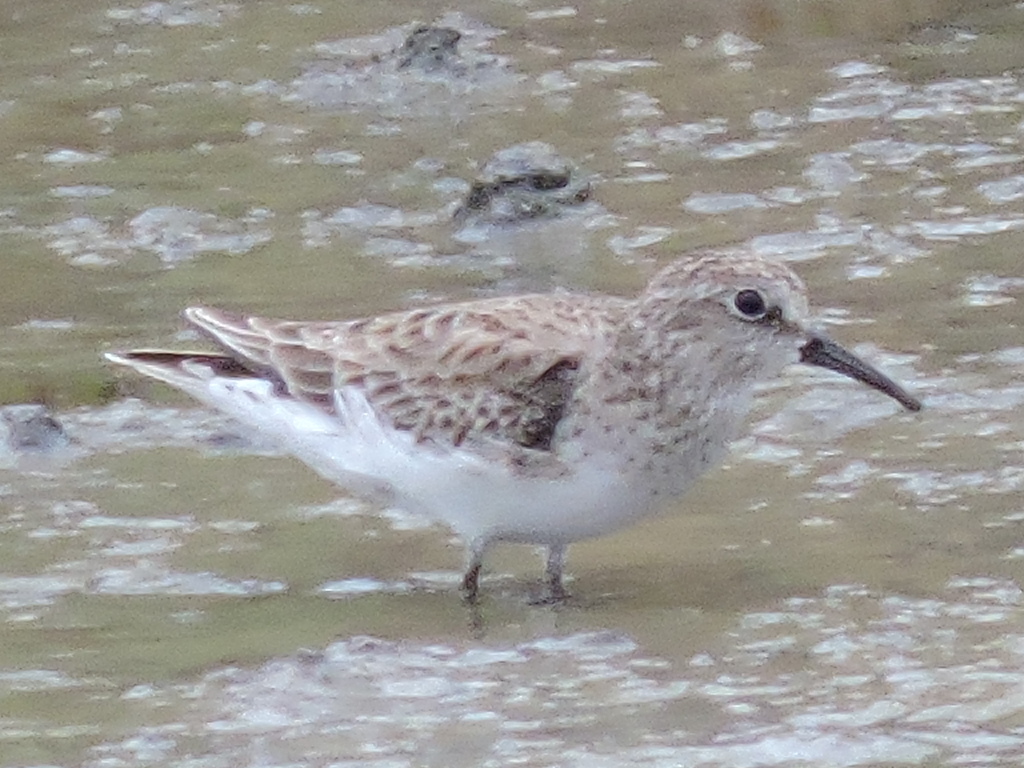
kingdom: Animalia
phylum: Chordata
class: Aves
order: Charadriiformes
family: Scolopacidae
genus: Calidris
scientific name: Calidris minutilla
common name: Least sandpiper
